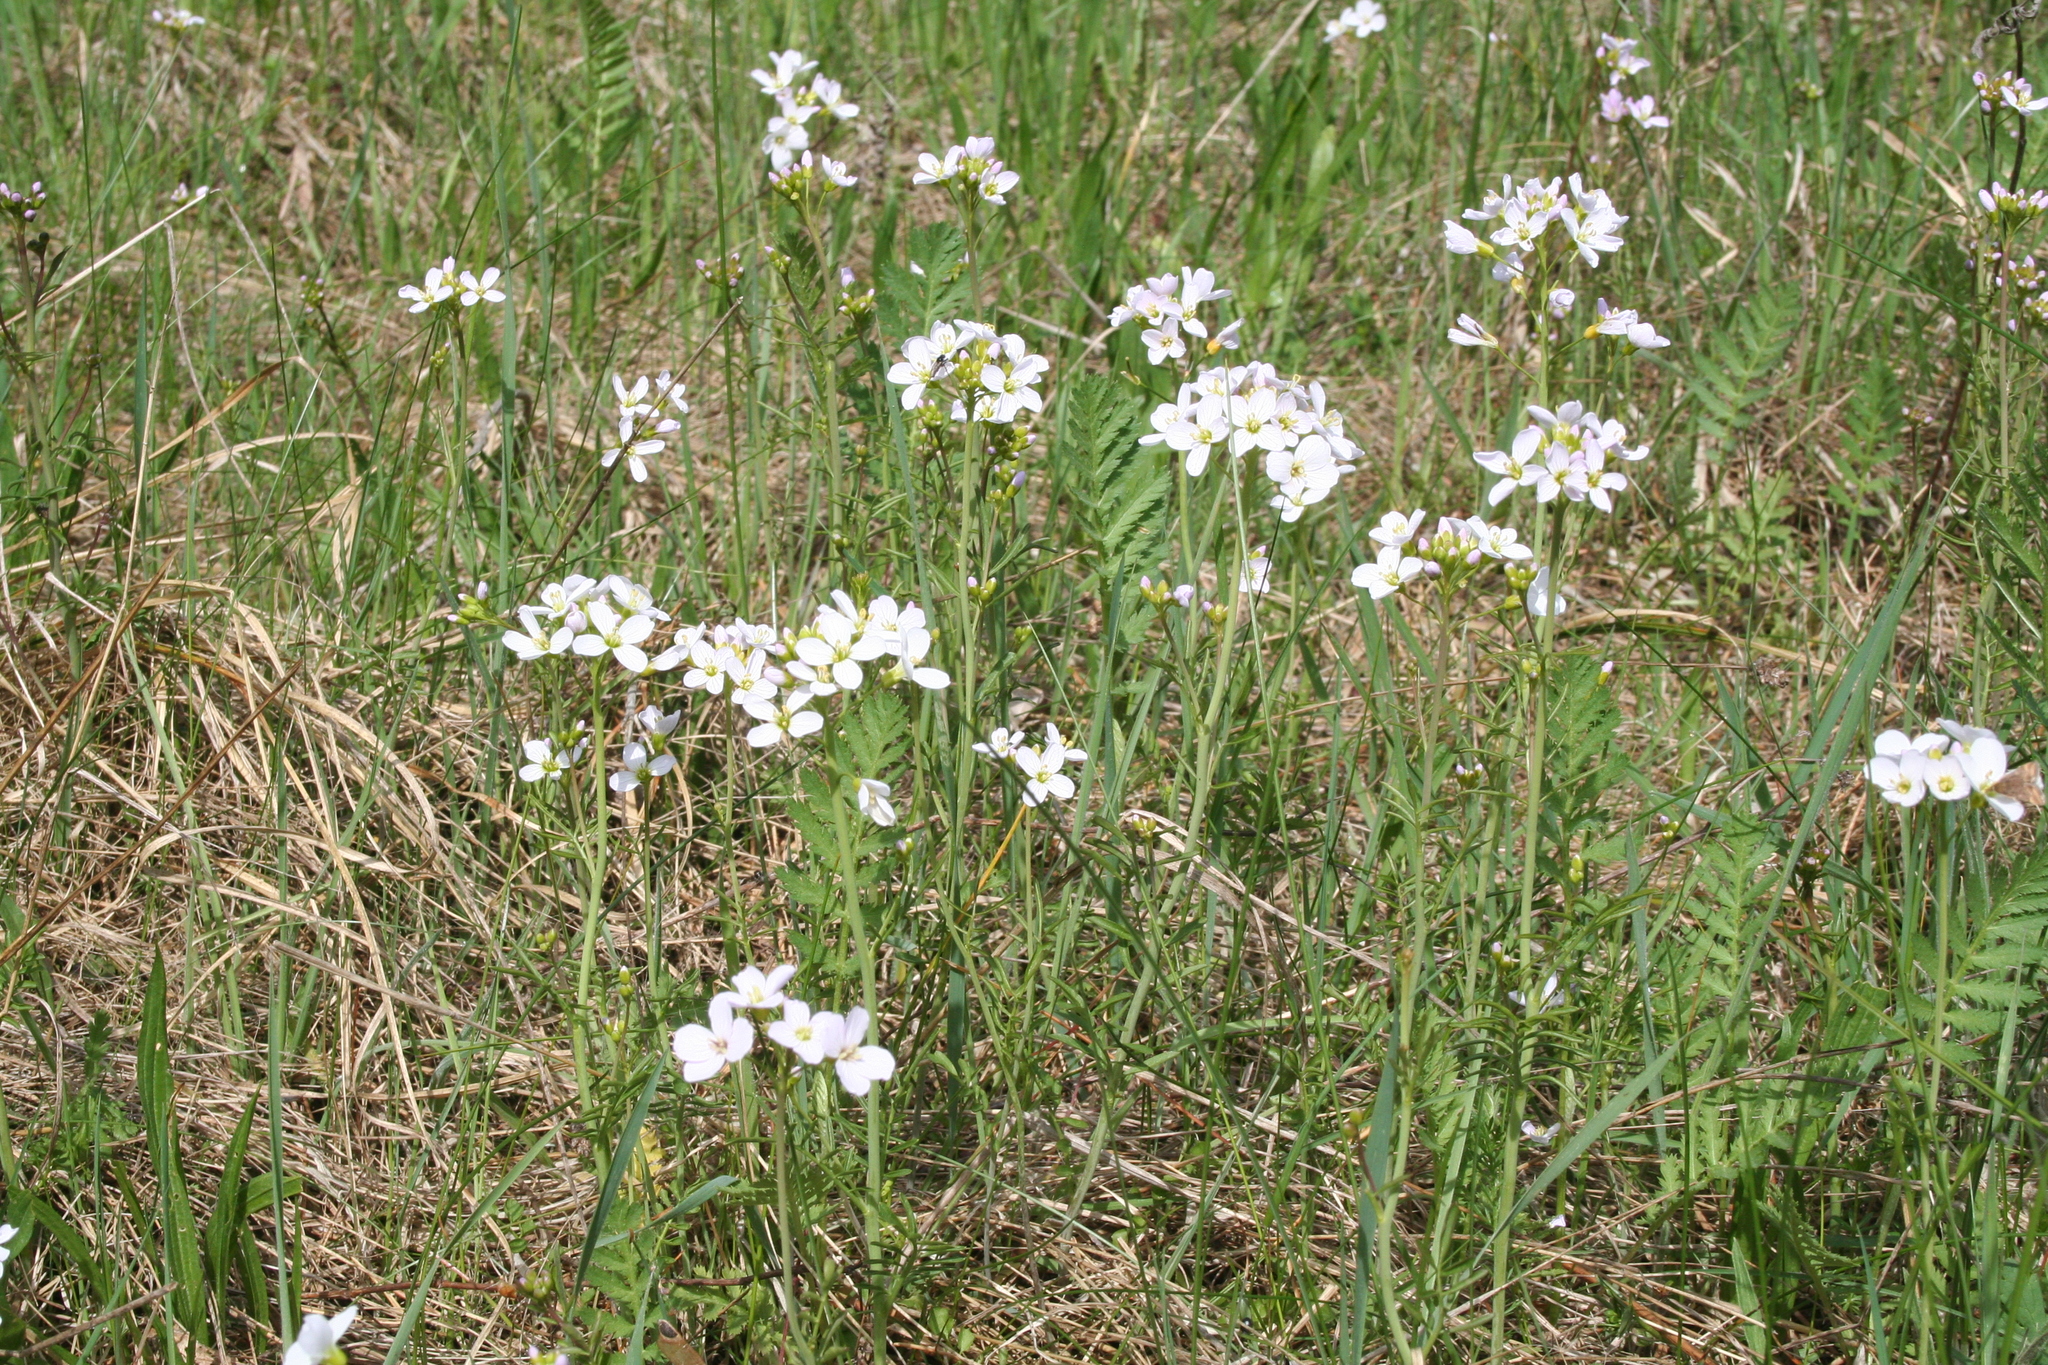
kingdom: Plantae
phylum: Tracheophyta
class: Magnoliopsida
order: Brassicales
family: Brassicaceae
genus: Cardamine
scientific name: Cardamine pratensis
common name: Cuckoo flower
